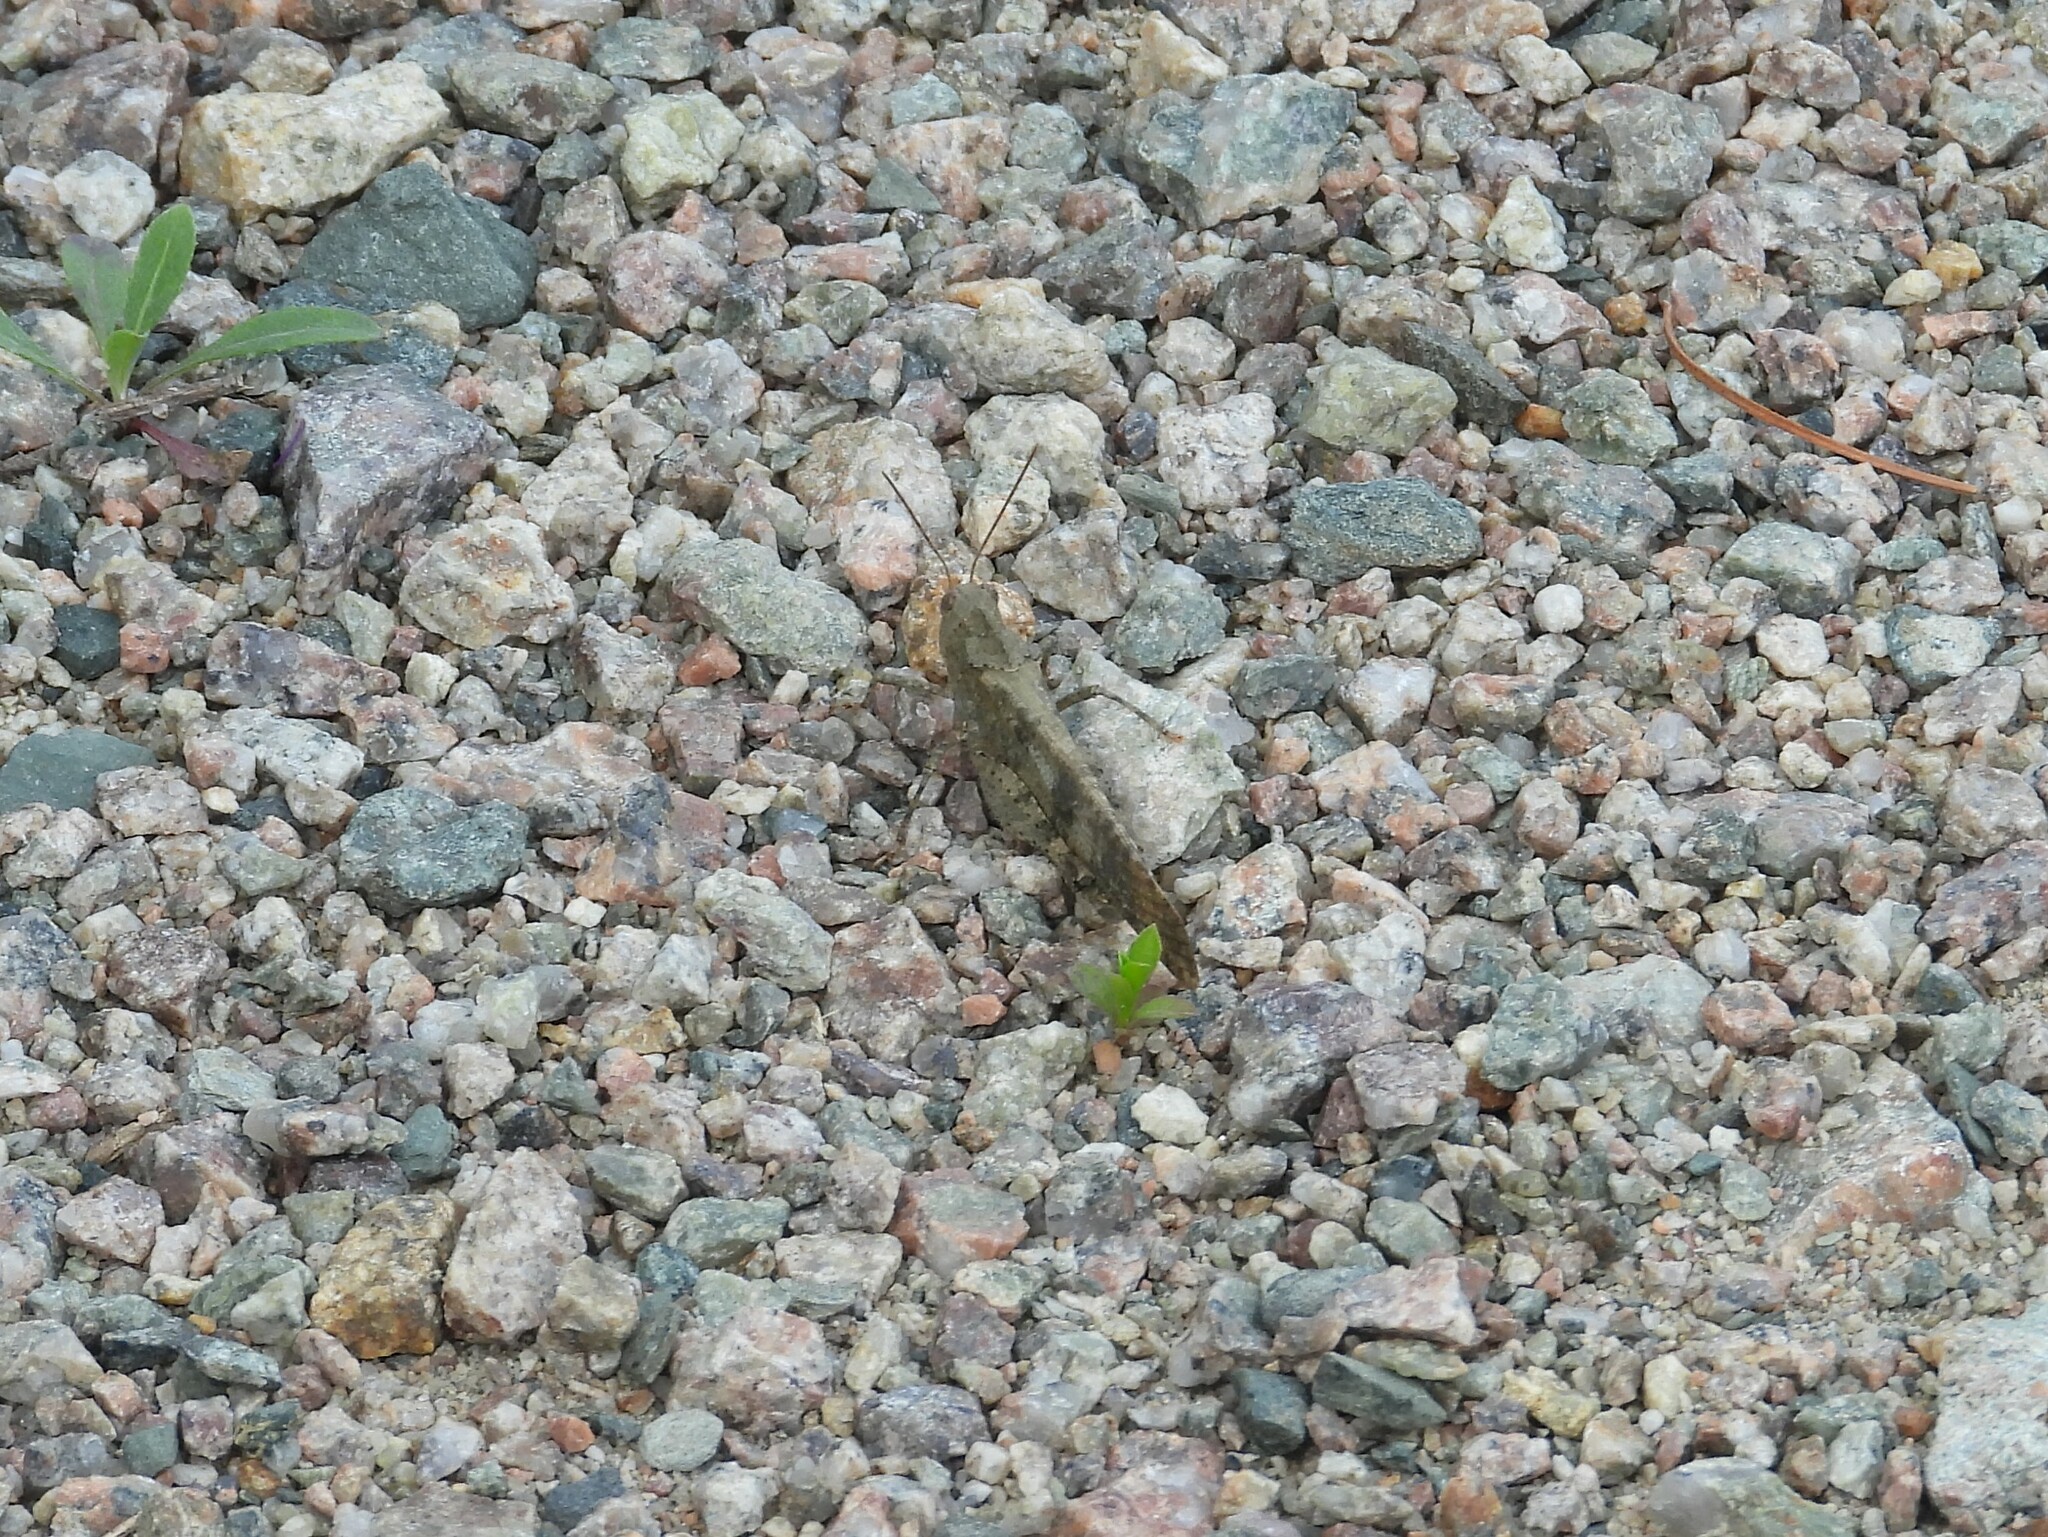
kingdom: Animalia
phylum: Arthropoda
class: Insecta
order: Orthoptera
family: Acrididae
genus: Dissosteira
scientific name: Dissosteira carolina
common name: Carolina grasshopper
